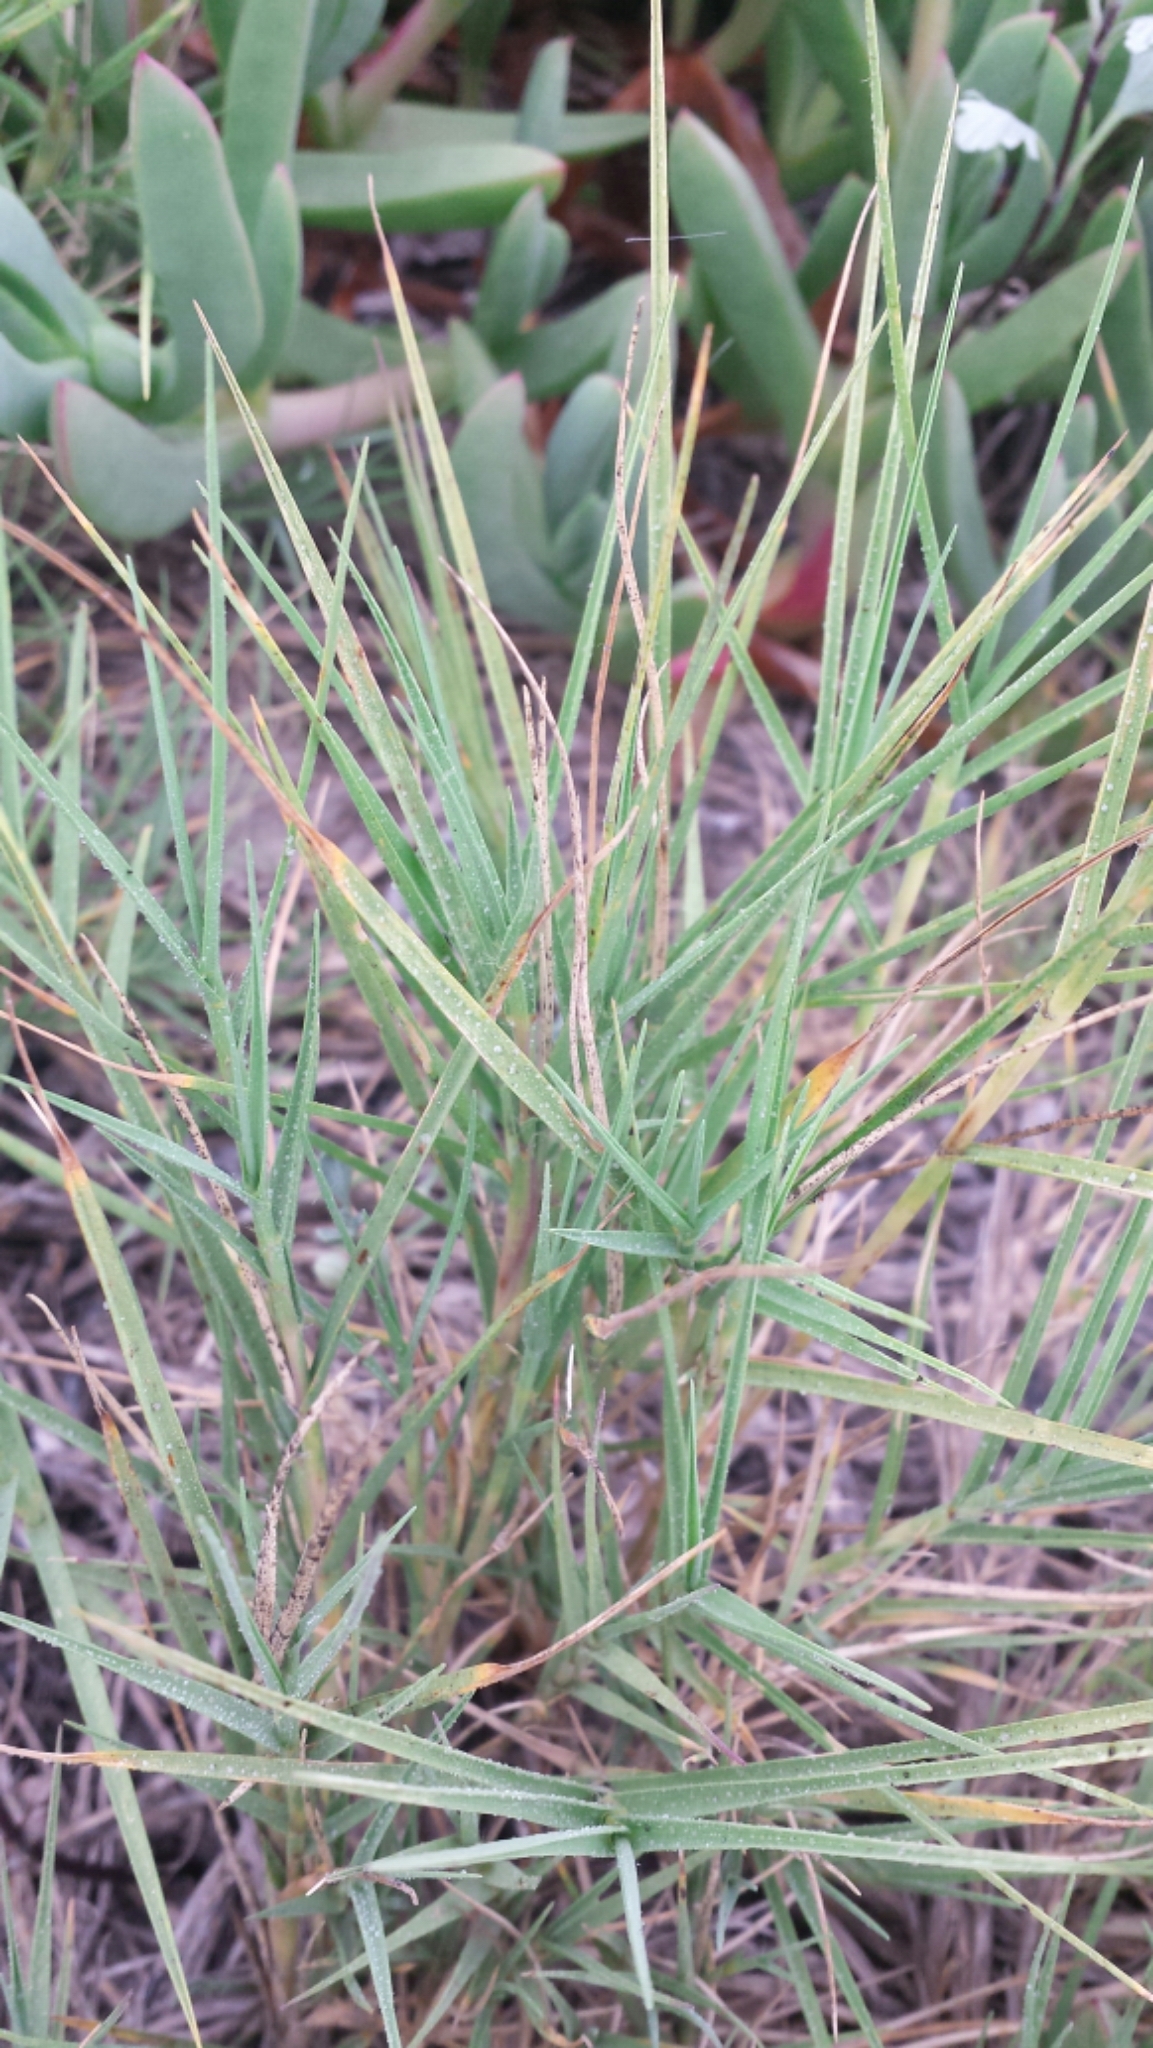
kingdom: Plantae
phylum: Tracheophyta
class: Liliopsida
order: Poales
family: Poaceae
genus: Distichlis
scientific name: Distichlis spicata
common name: Saltgrass
